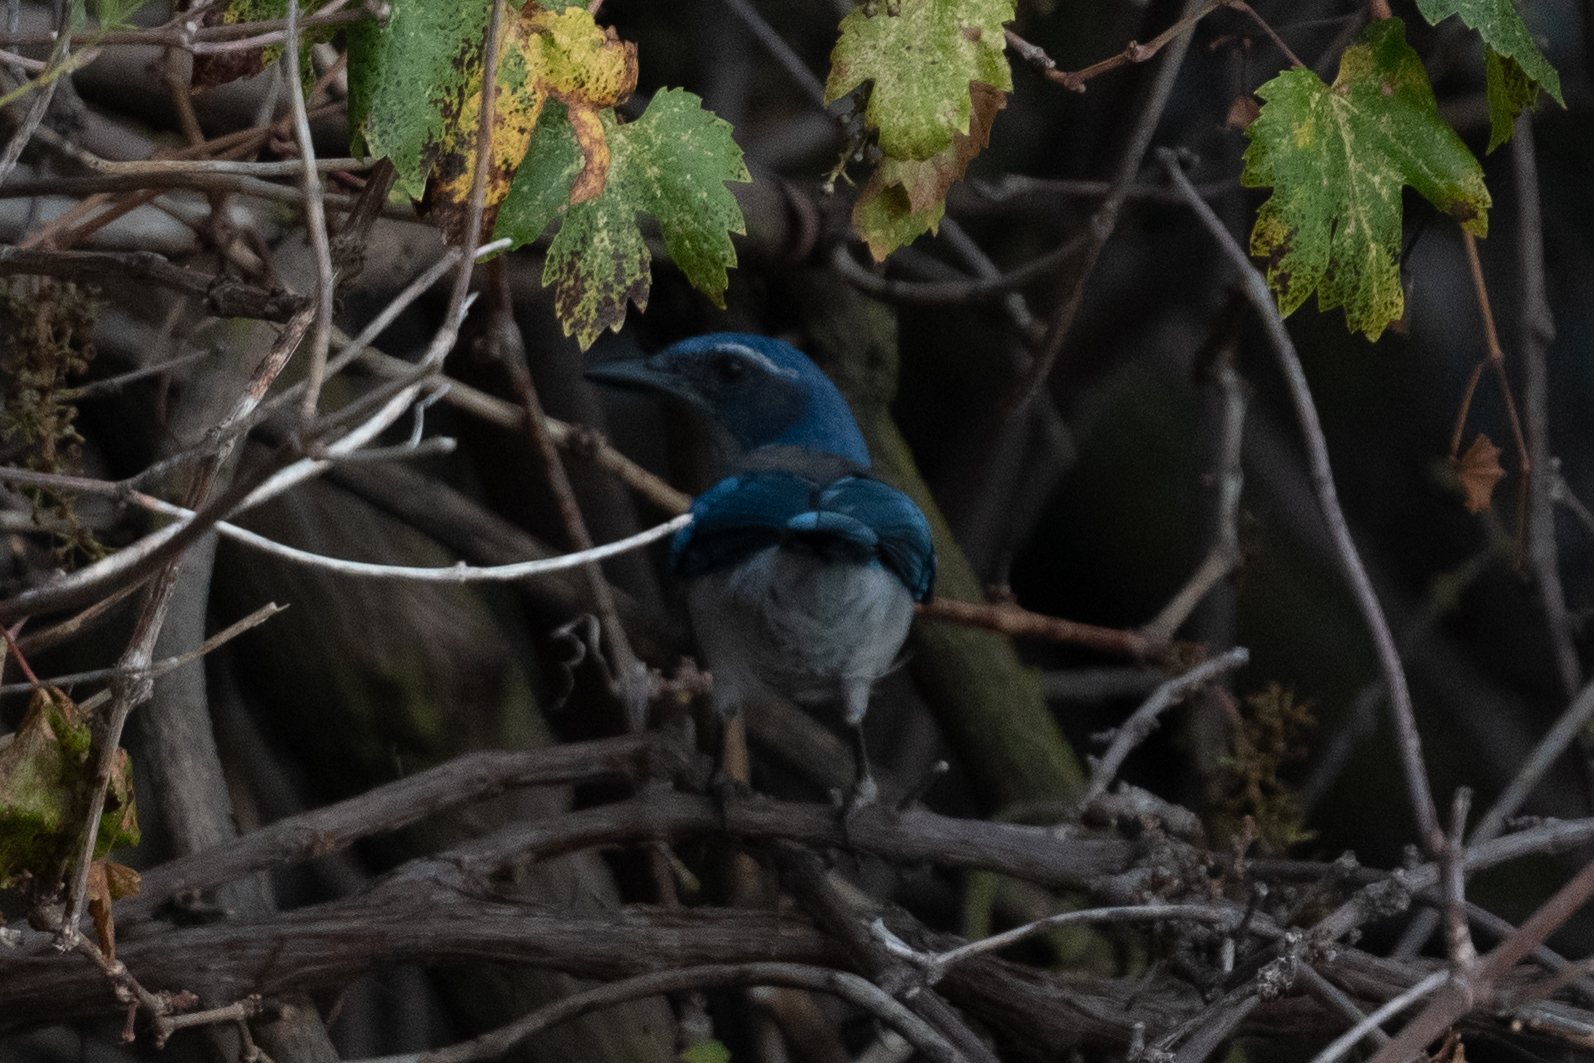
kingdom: Animalia
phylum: Chordata
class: Aves
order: Passeriformes
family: Corvidae
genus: Aphelocoma
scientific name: Aphelocoma californica
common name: California scrub-jay
